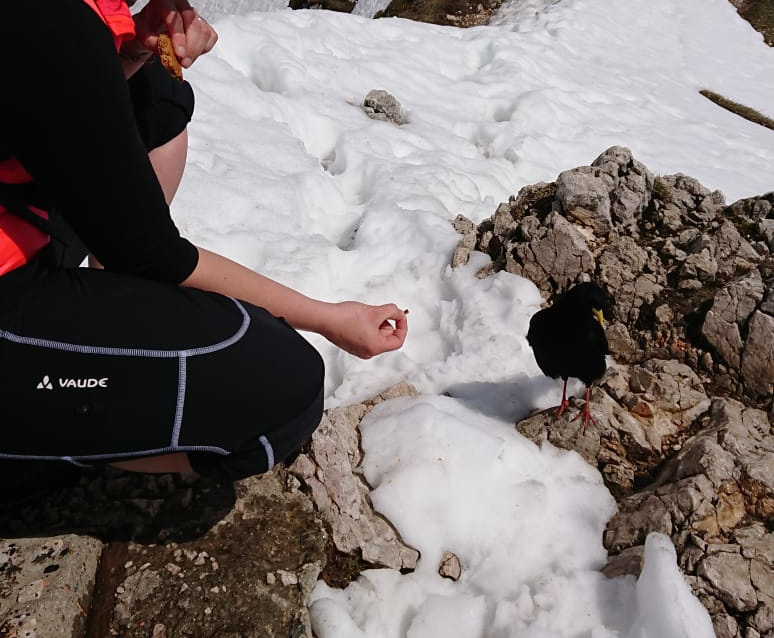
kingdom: Animalia
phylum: Chordata
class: Aves
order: Passeriformes
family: Corvidae
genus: Pyrrhocorax
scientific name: Pyrrhocorax graculus
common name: Alpine chough
